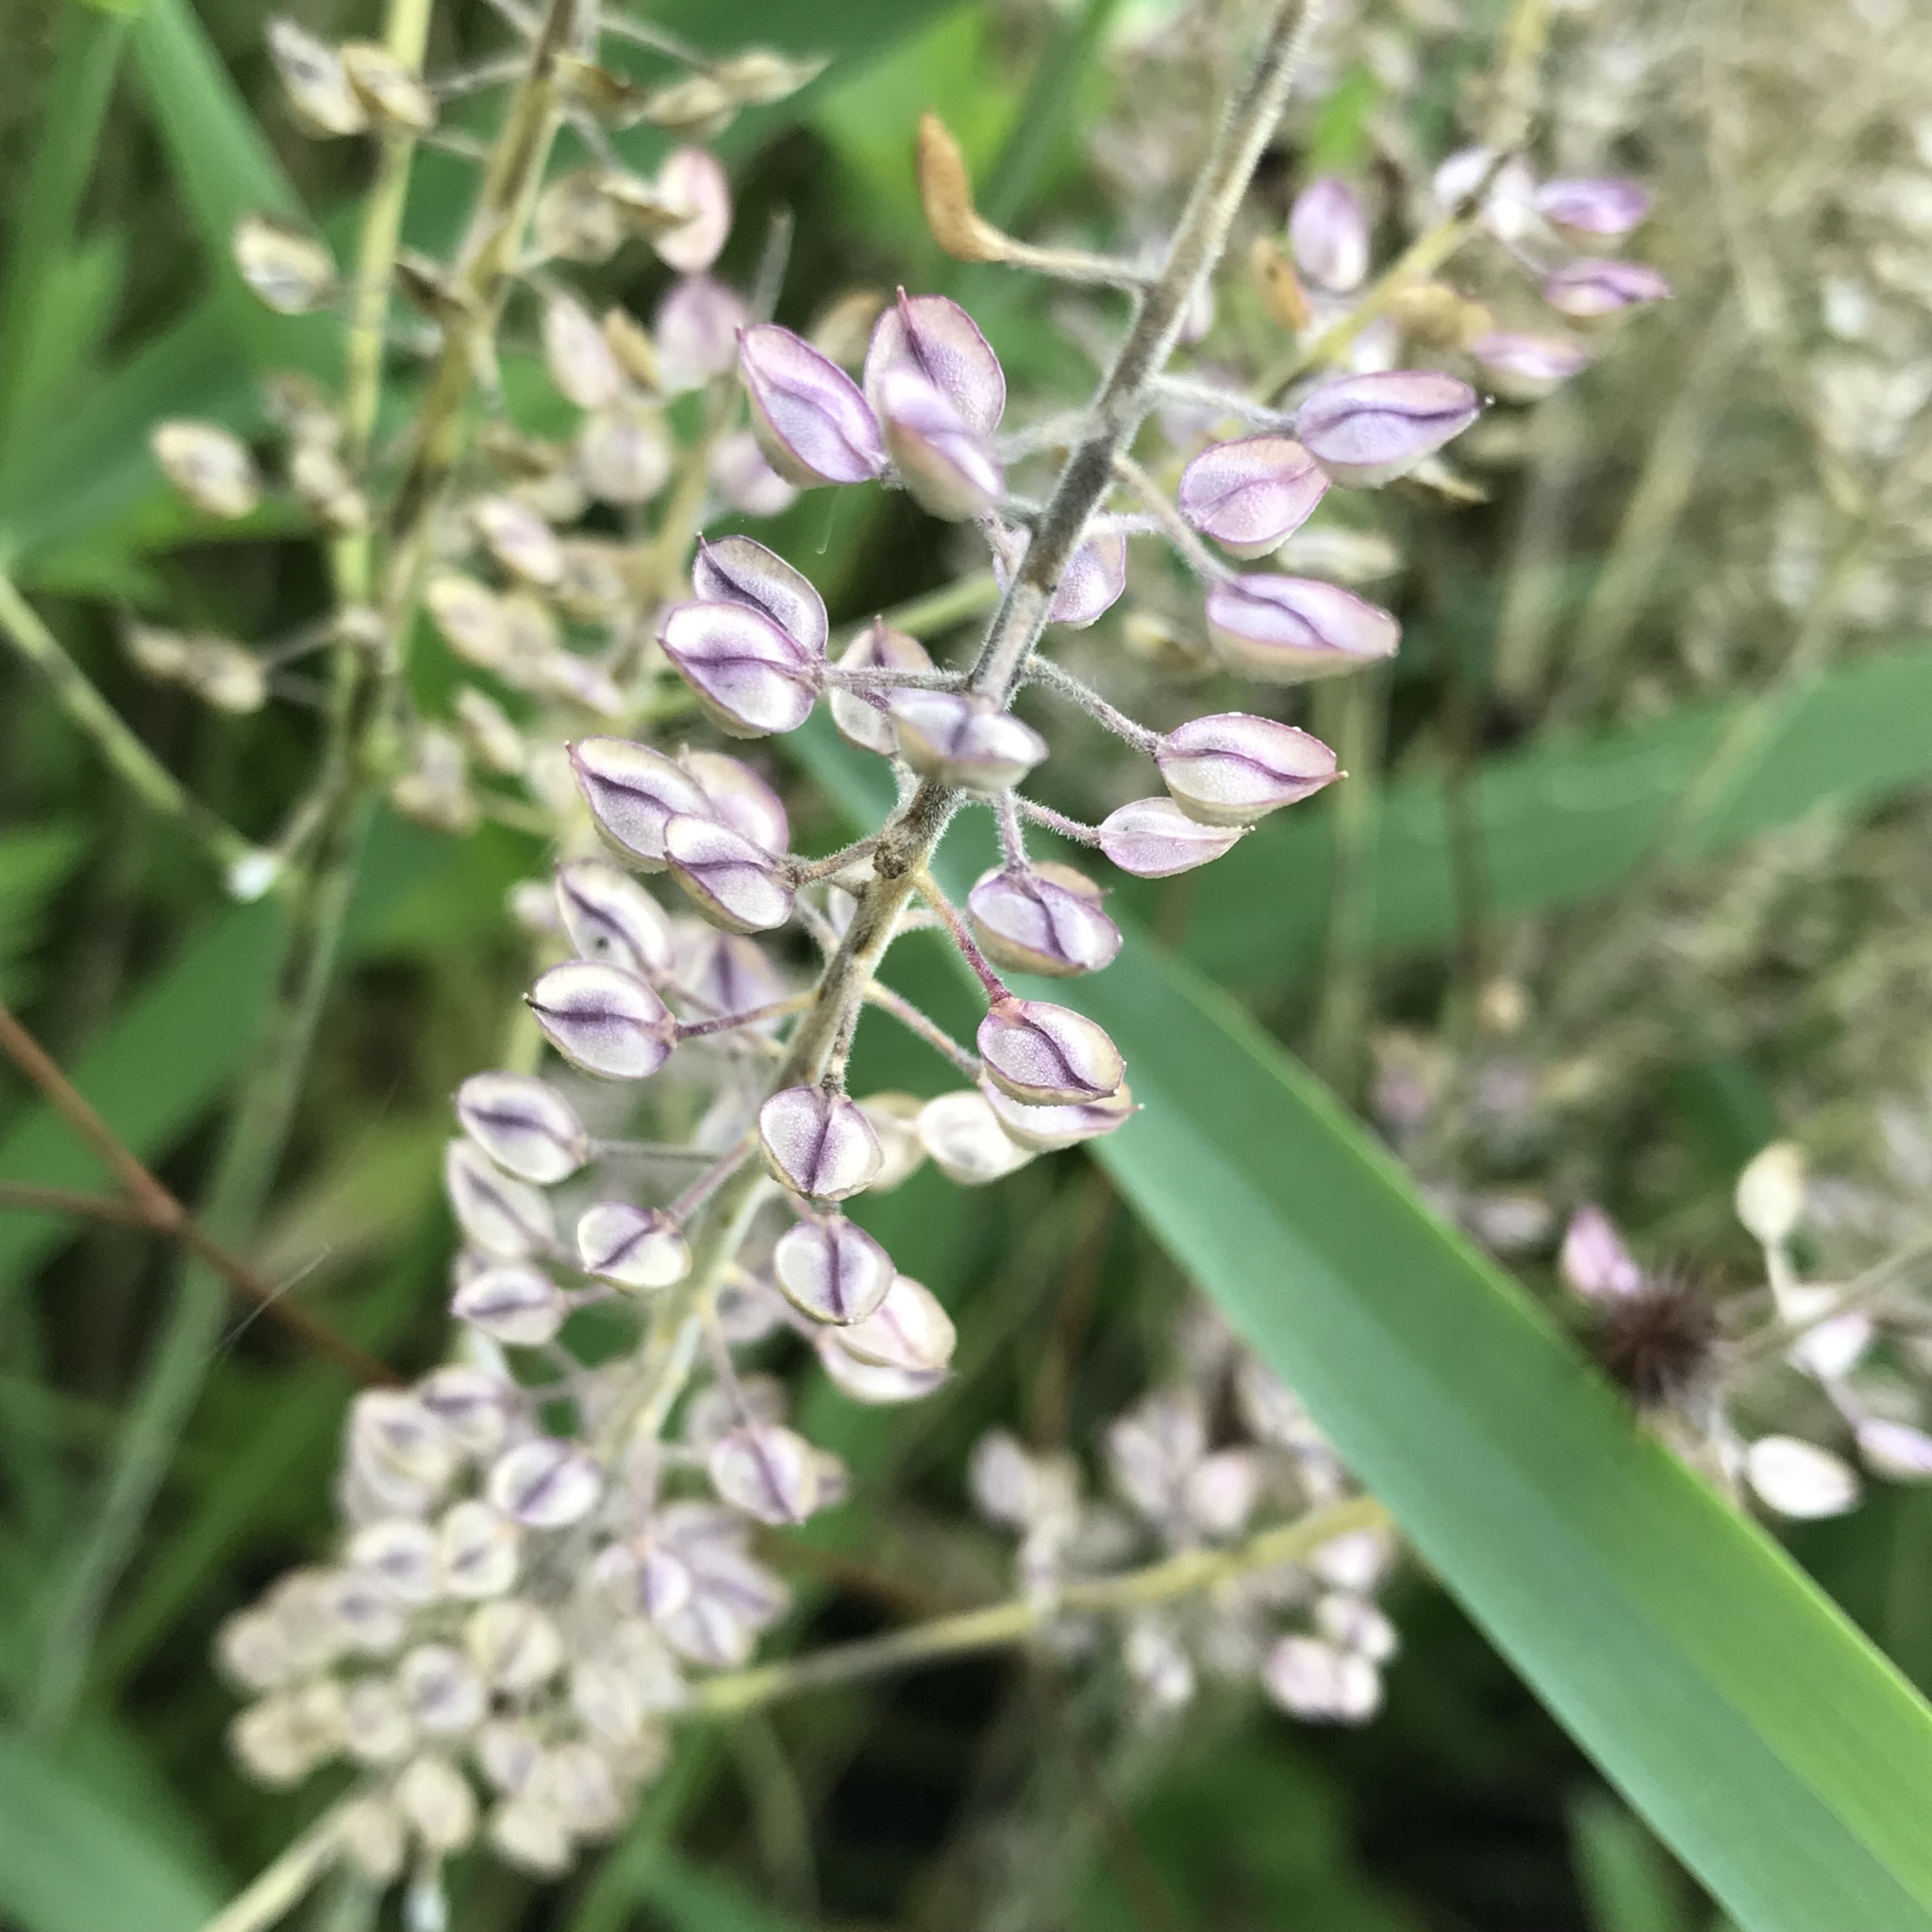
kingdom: Plantae
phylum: Tracheophyta
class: Magnoliopsida
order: Brassicales
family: Brassicaceae
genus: Lepidium
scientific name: Lepidium campestre
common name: Field pepperwort
